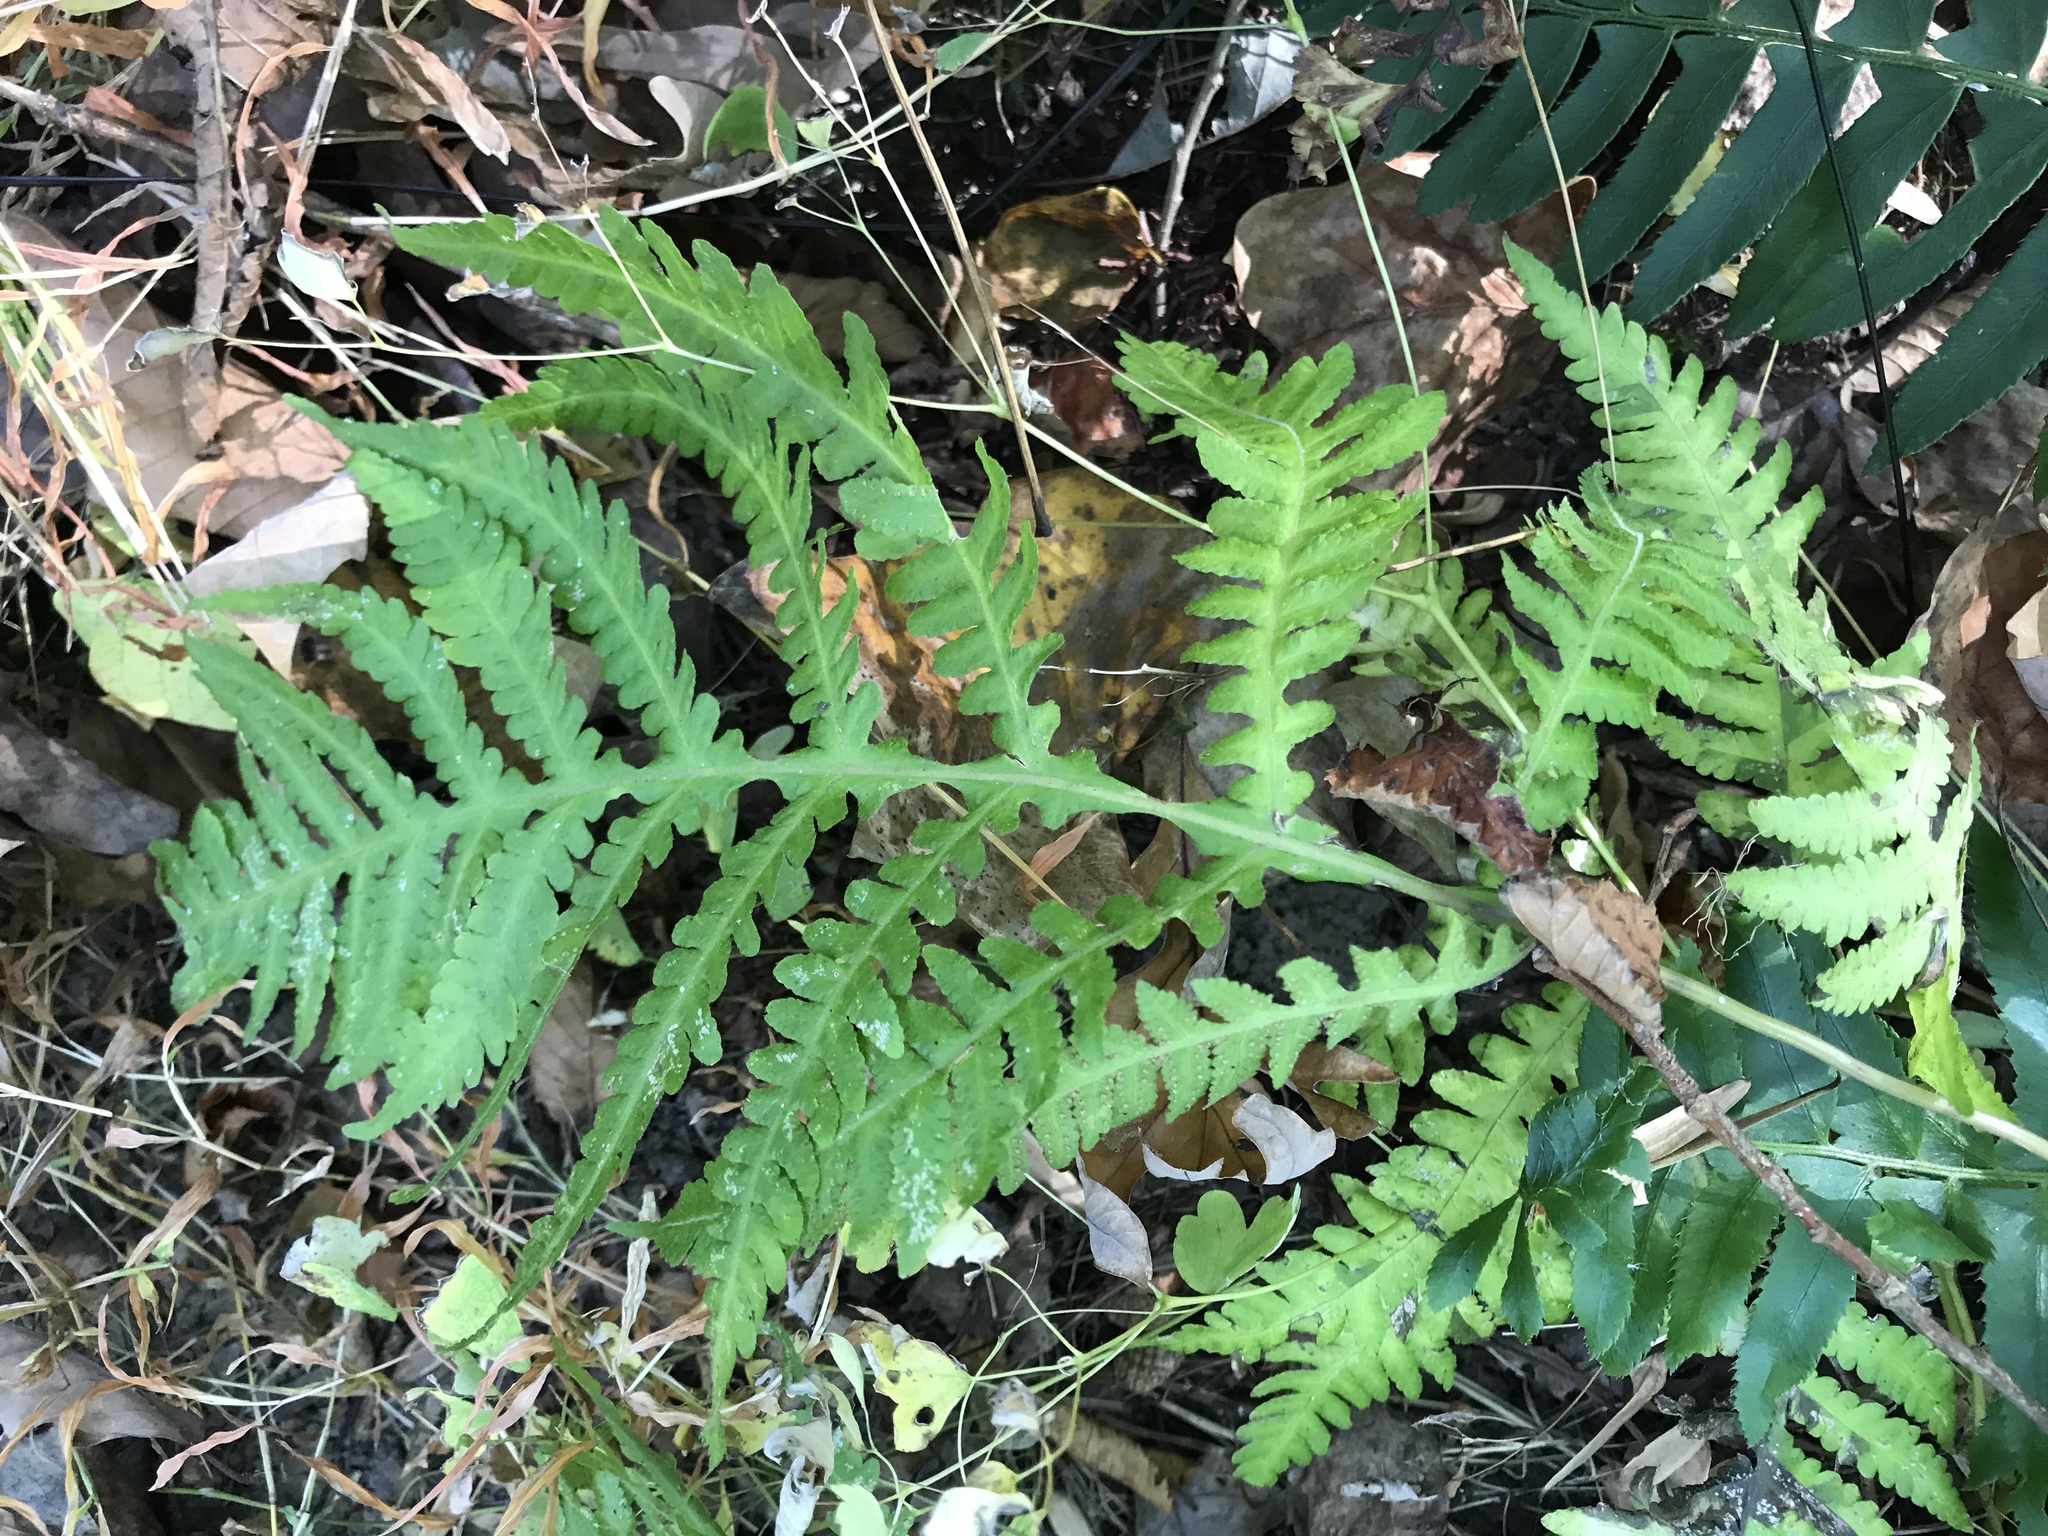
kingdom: Plantae
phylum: Tracheophyta
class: Polypodiopsida
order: Polypodiales
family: Thelypteridaceae
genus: Phegopteris
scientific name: Phegopteris hexagonoptera
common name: Broad beech fern
